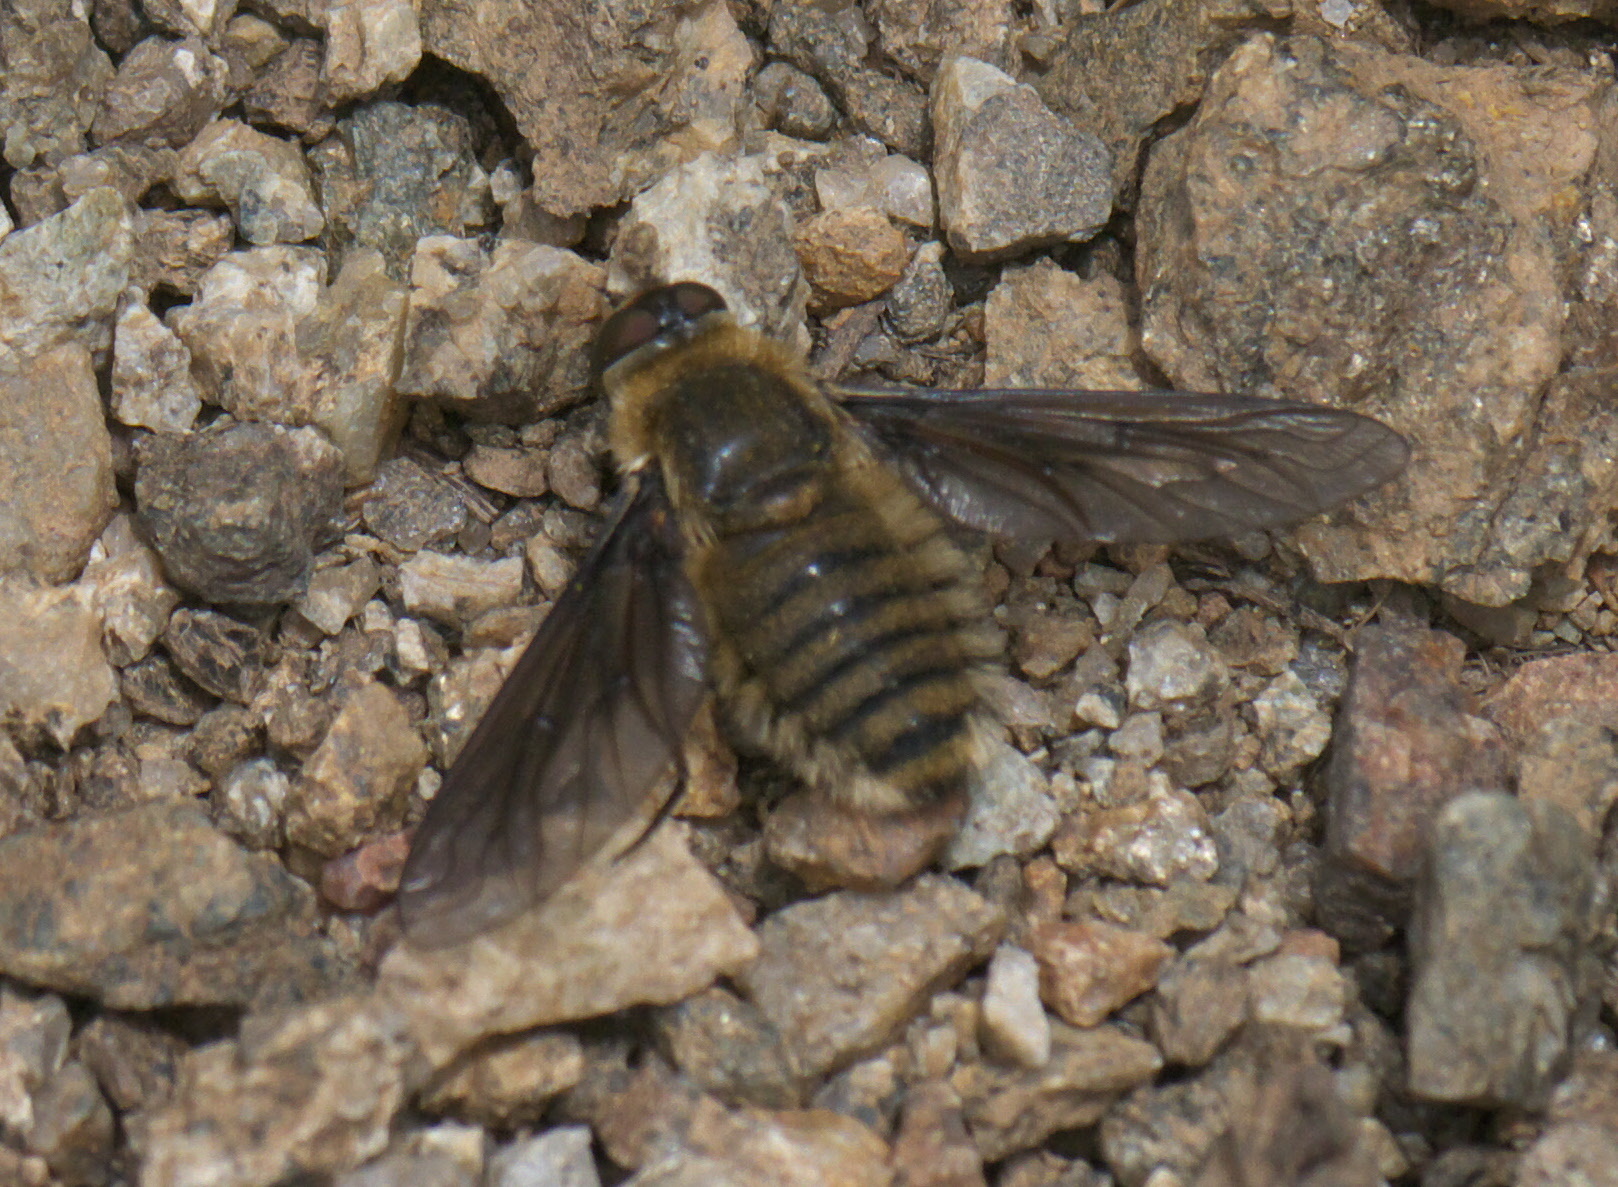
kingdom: Animalia
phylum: Arthropoda
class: Insecta
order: Diptera
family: Bombyliidae
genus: Poecilanthrax
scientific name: Poecilanthrax monticola
